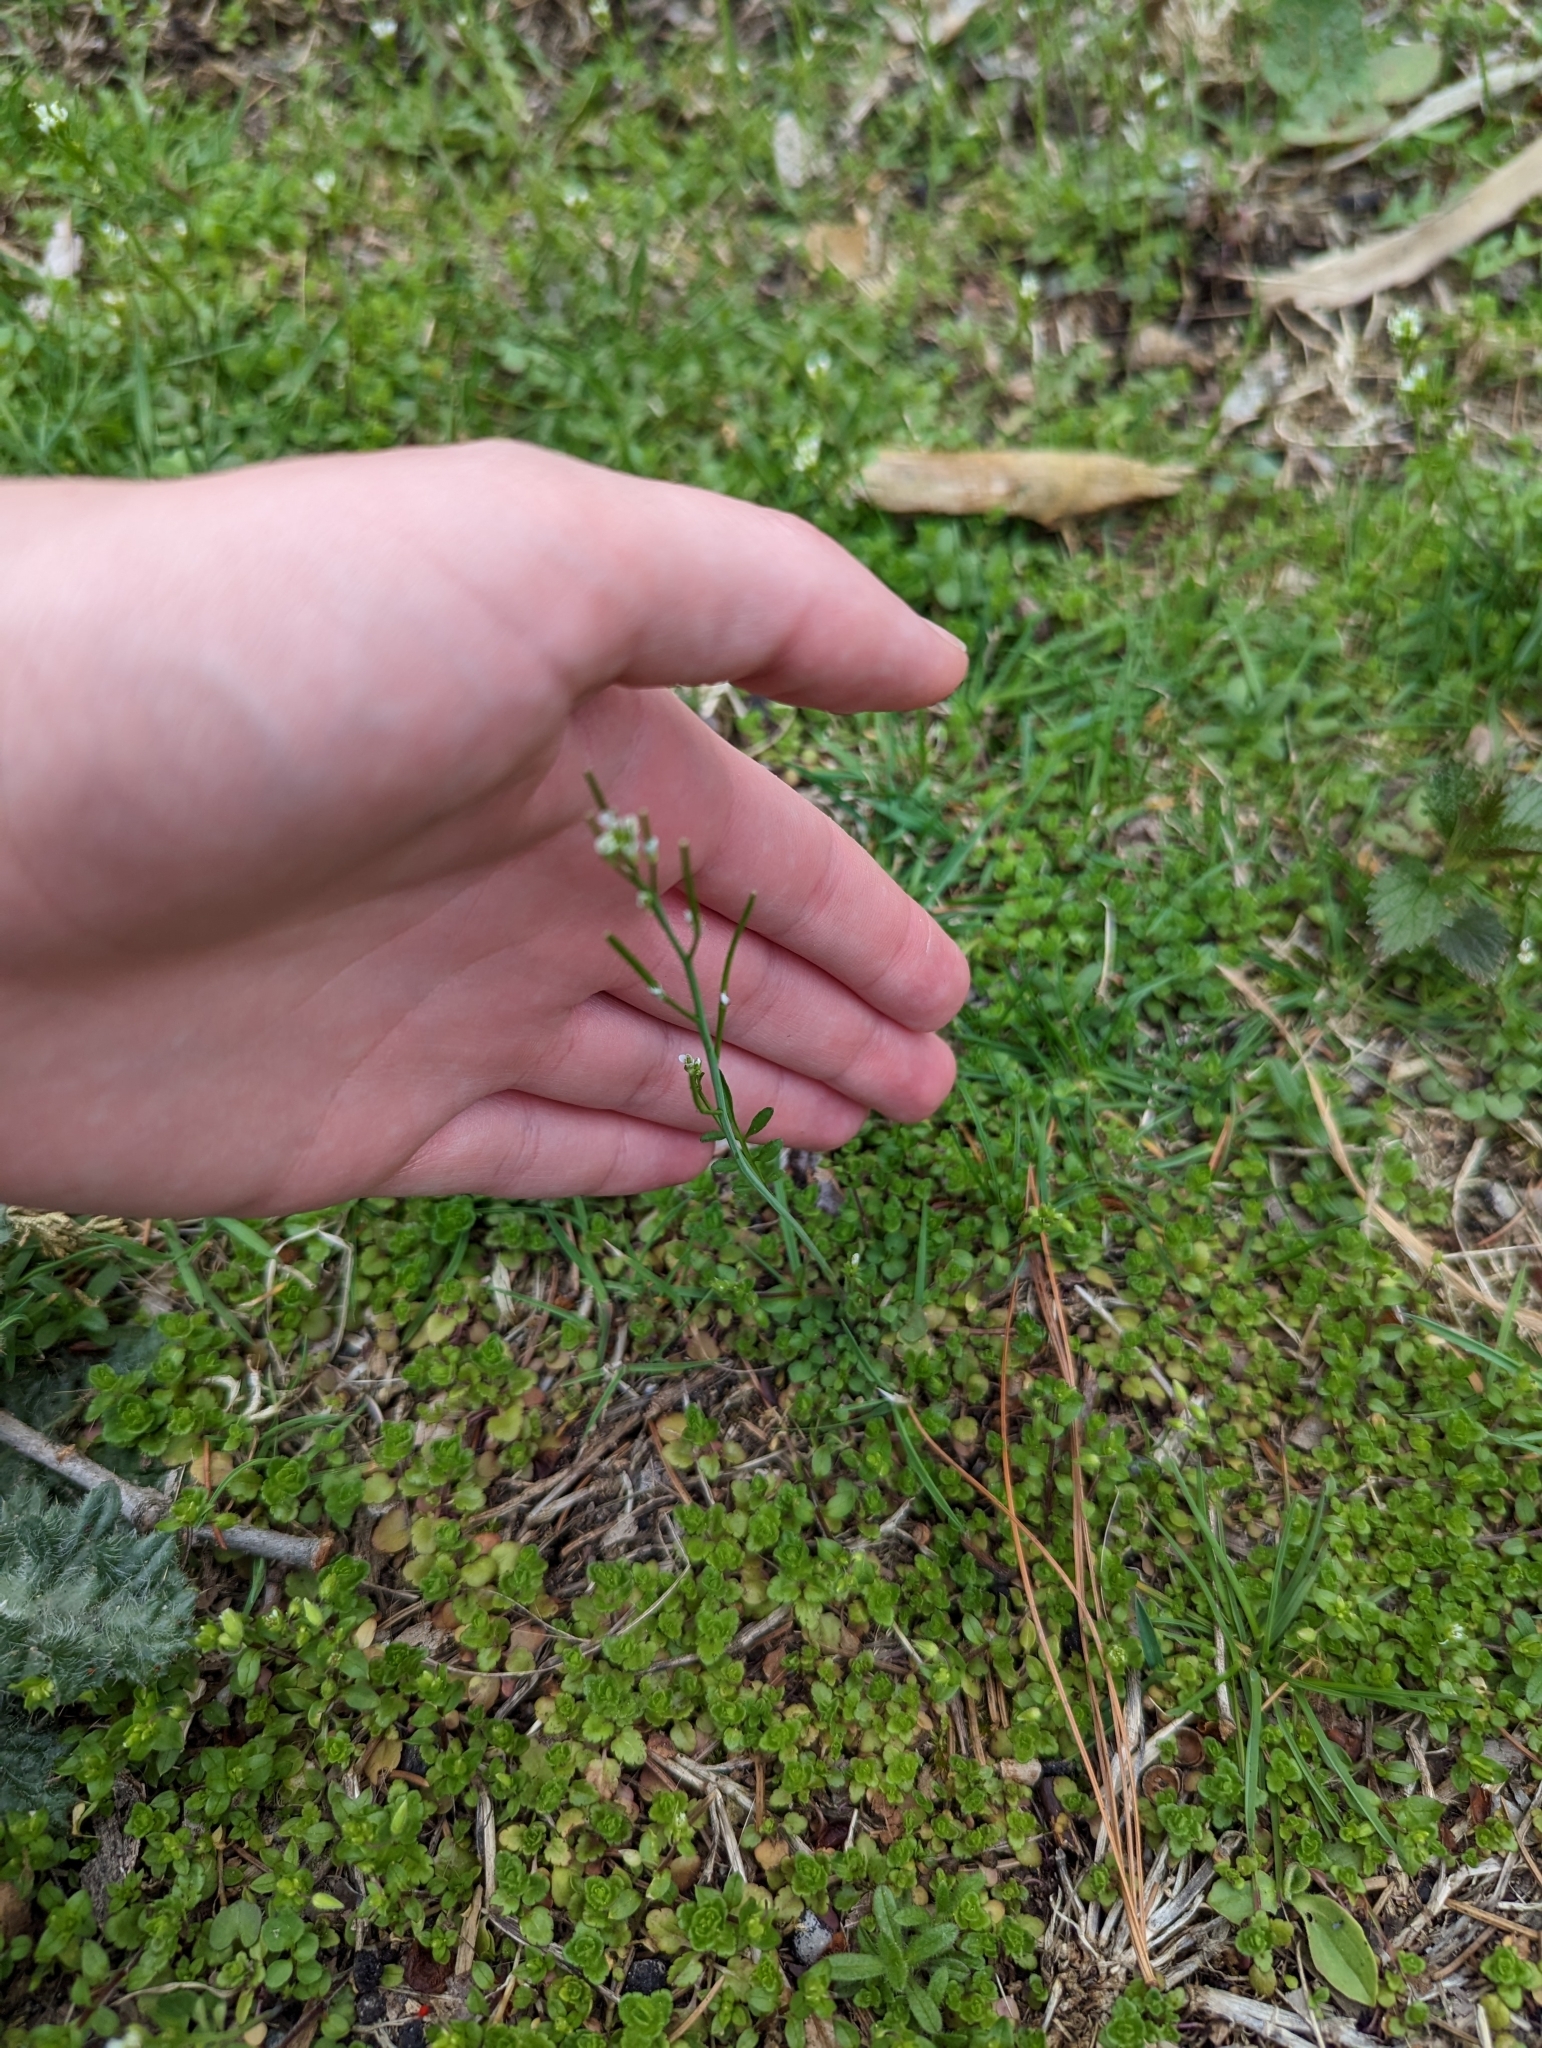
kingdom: Plantae
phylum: Tracheophyta
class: Magnoliopsida
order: Brassicales
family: Brassicaceae
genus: Cardamine
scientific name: Cardamine hirsuta
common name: Hairy bittercress
